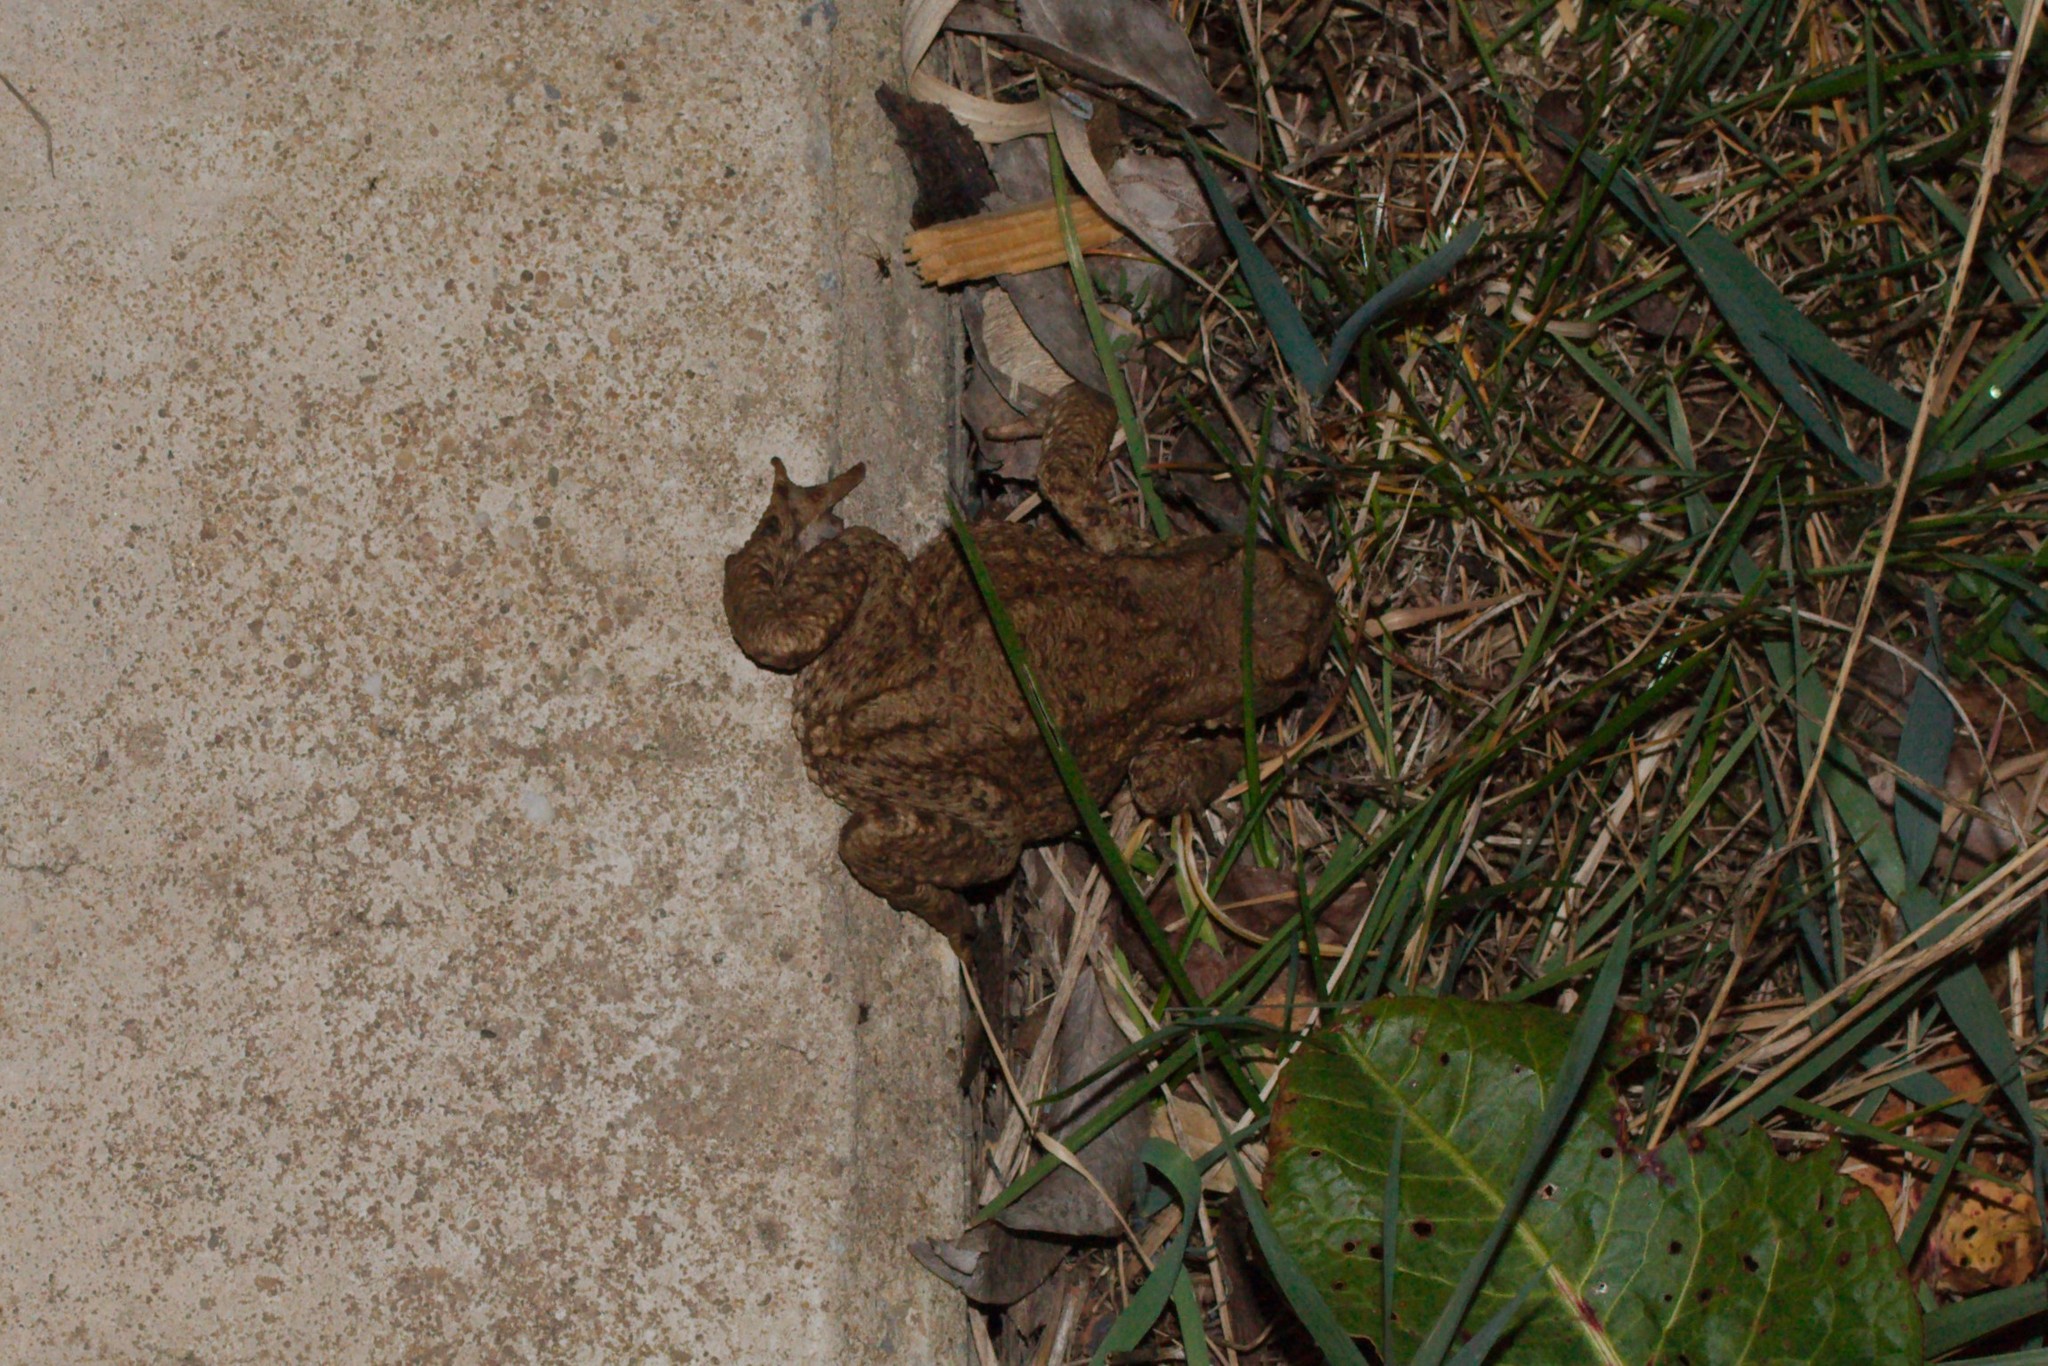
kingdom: Animalia
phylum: Chordata
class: Amphibia
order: Anura
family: Bufonidae
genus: Bufo
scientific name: Bufo bufo
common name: Common toad
